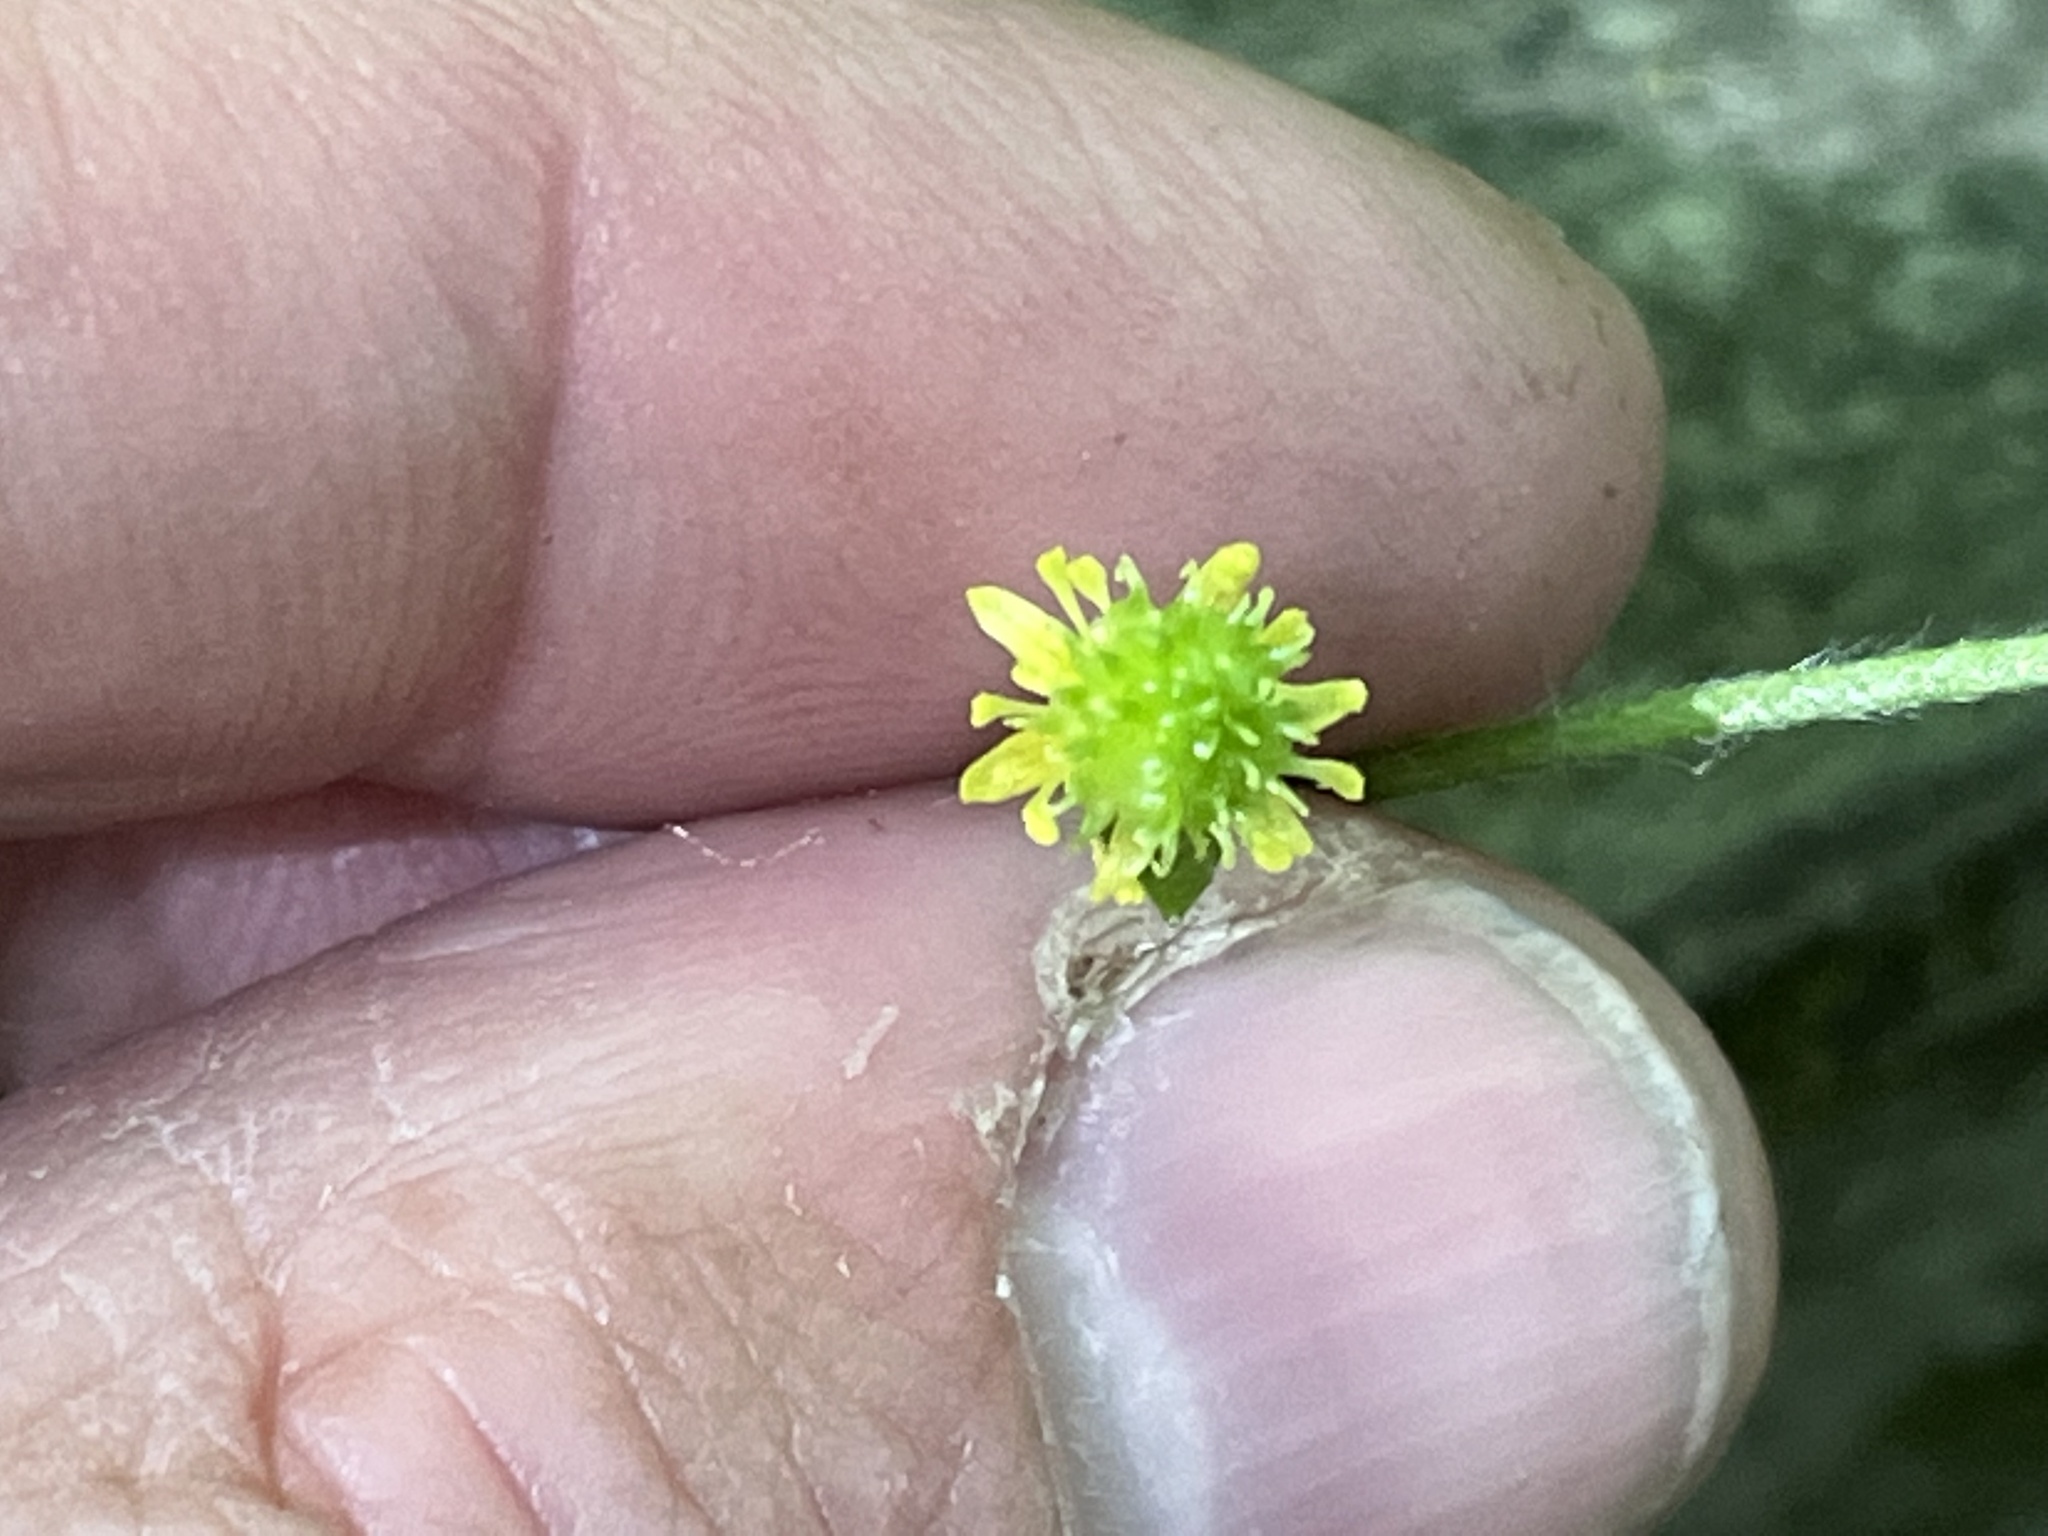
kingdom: Plantae
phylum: Tracheophyta
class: Magnoliopsida
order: Ranunculales
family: Ranunculaceae
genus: Ranunculus
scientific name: Ranunculus recurvatus
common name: Blisterwort
